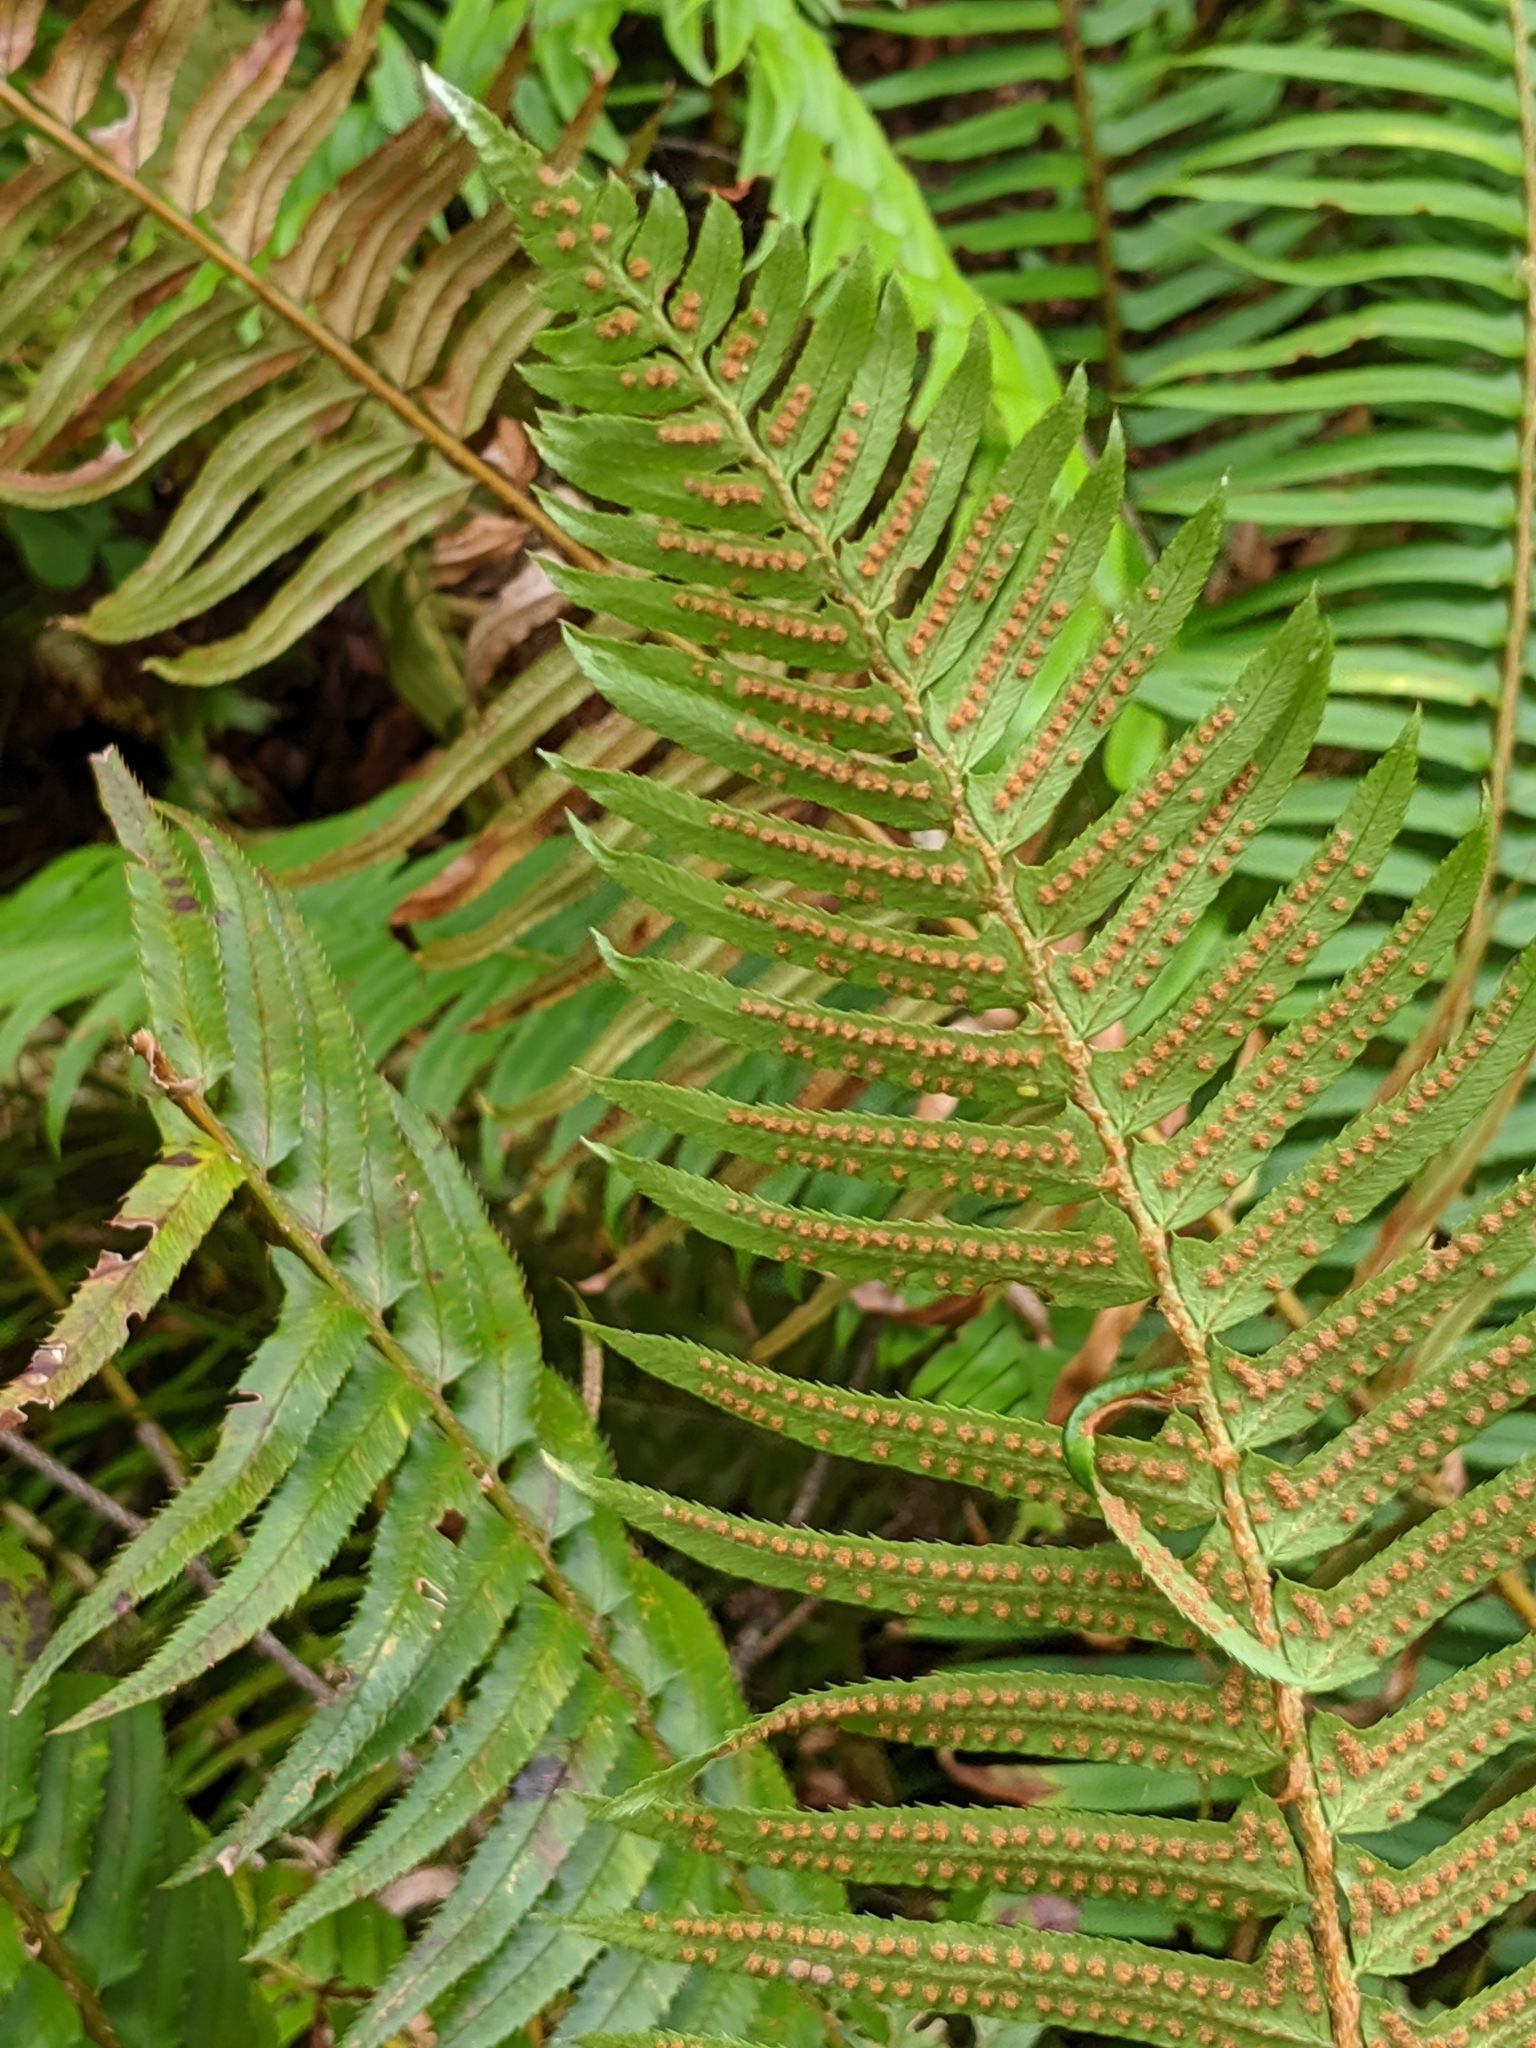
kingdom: Plantae
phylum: Tracheophyta
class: Polypodiopsida
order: Polypodiales
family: Dryopteridaceae
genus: Polystichum
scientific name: Polystichum munitum
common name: Western sword-fern
